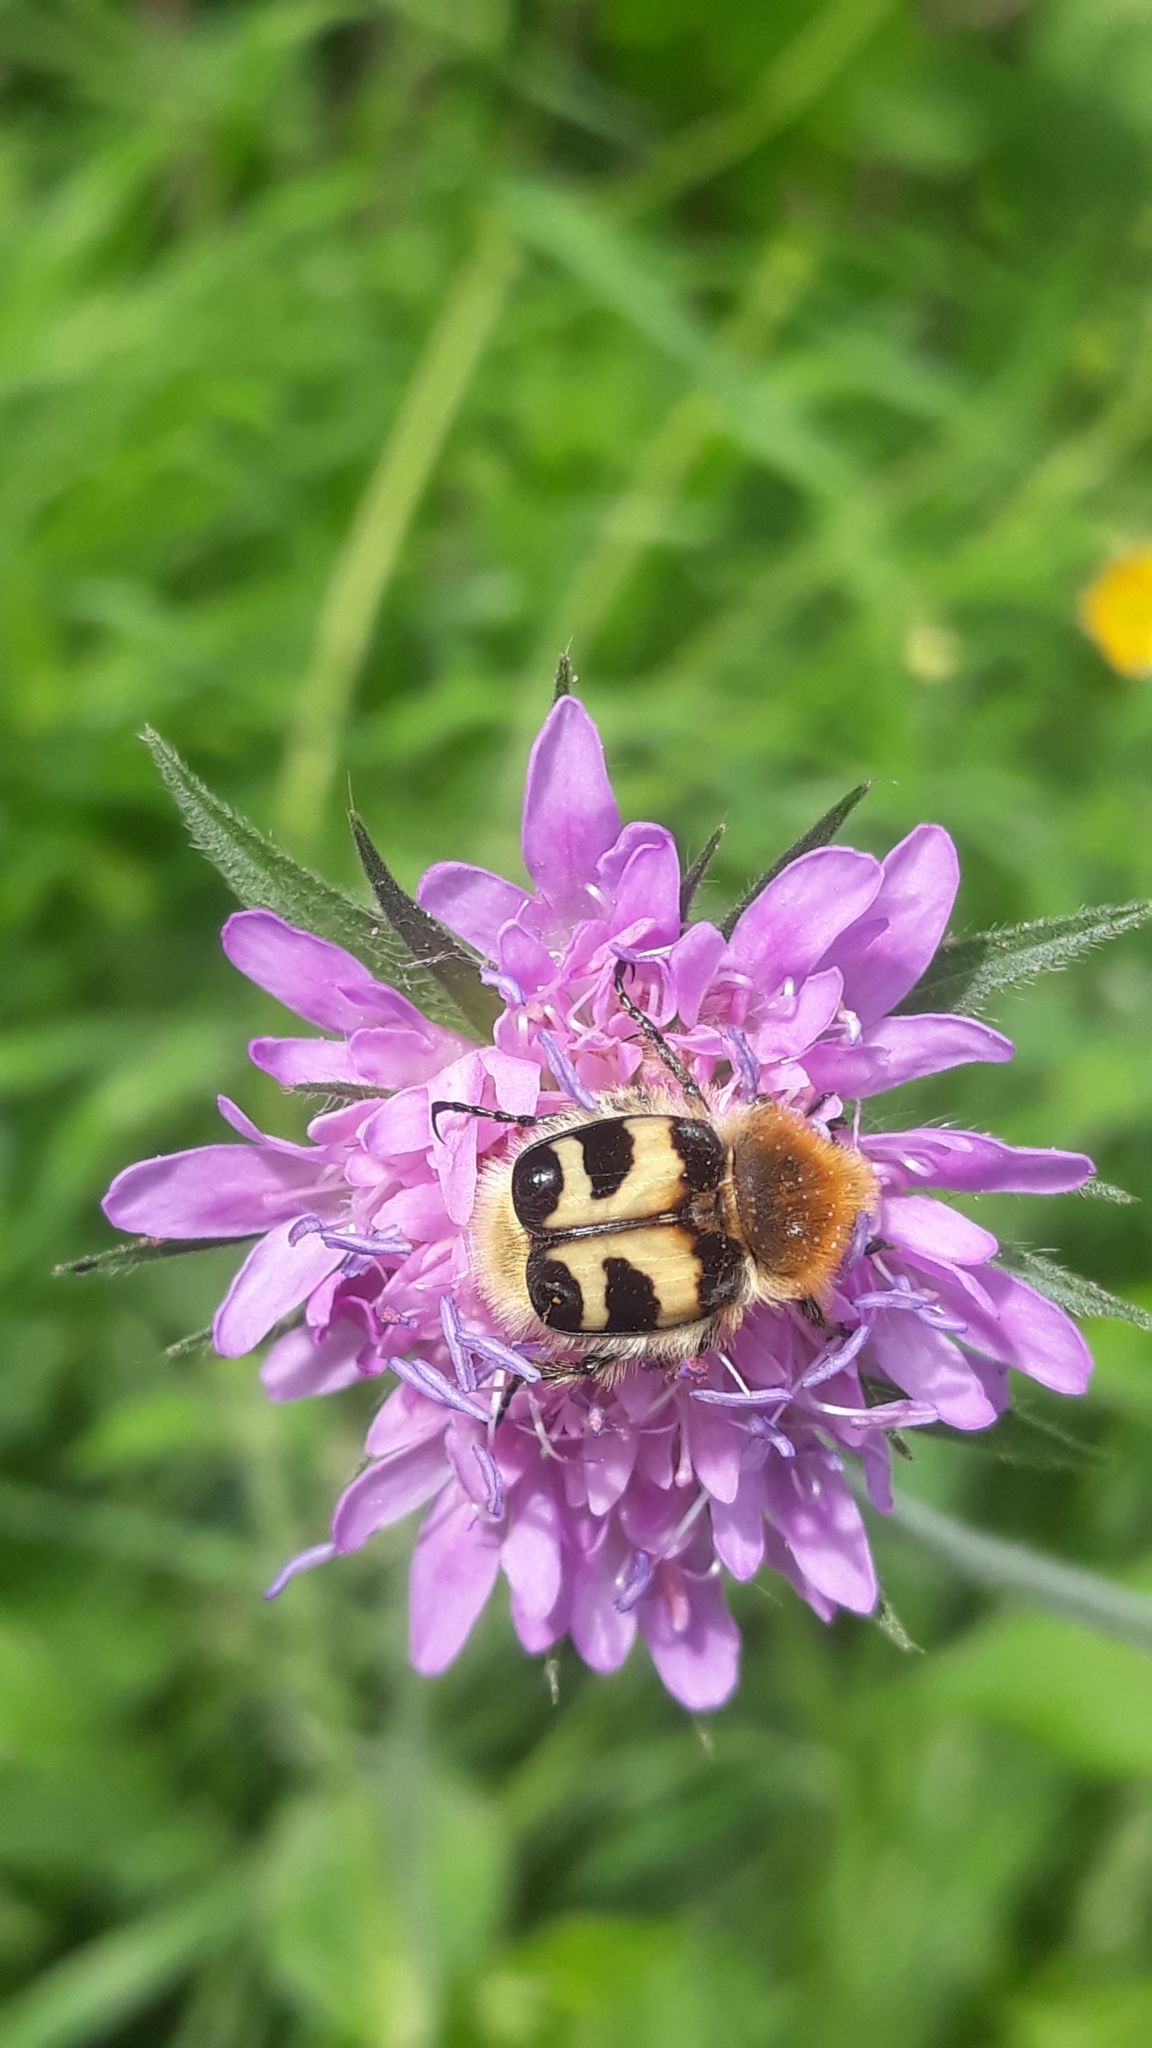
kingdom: Animalia
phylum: Arthropoda
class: Insecta
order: Coleoptera
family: Scarabaeidae
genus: Trichius
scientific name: Trichius fasciatus
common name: Bee beetle
